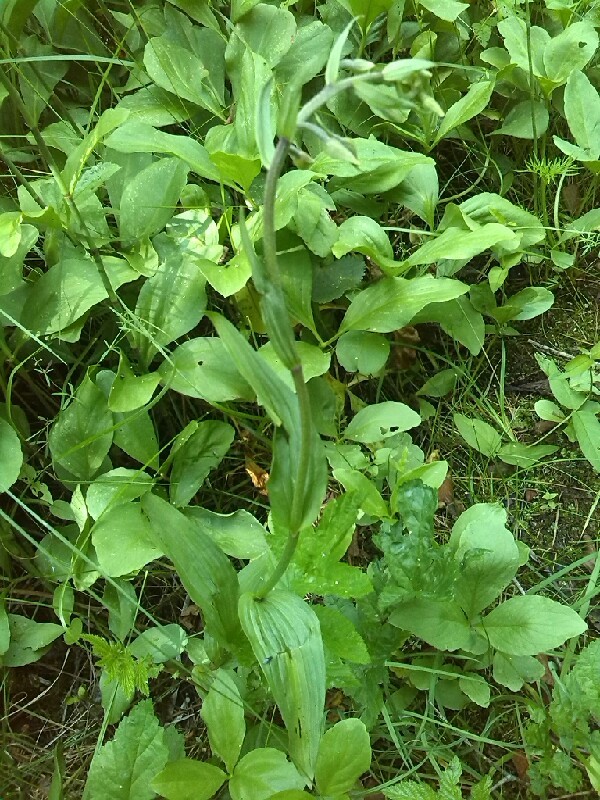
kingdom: Plantae
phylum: Tracheophyta
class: Liliopsida
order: Asparagales
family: Orchidaceae
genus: Epipactis
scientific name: Epipactis helleborine
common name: Broad-leaved helleborine
